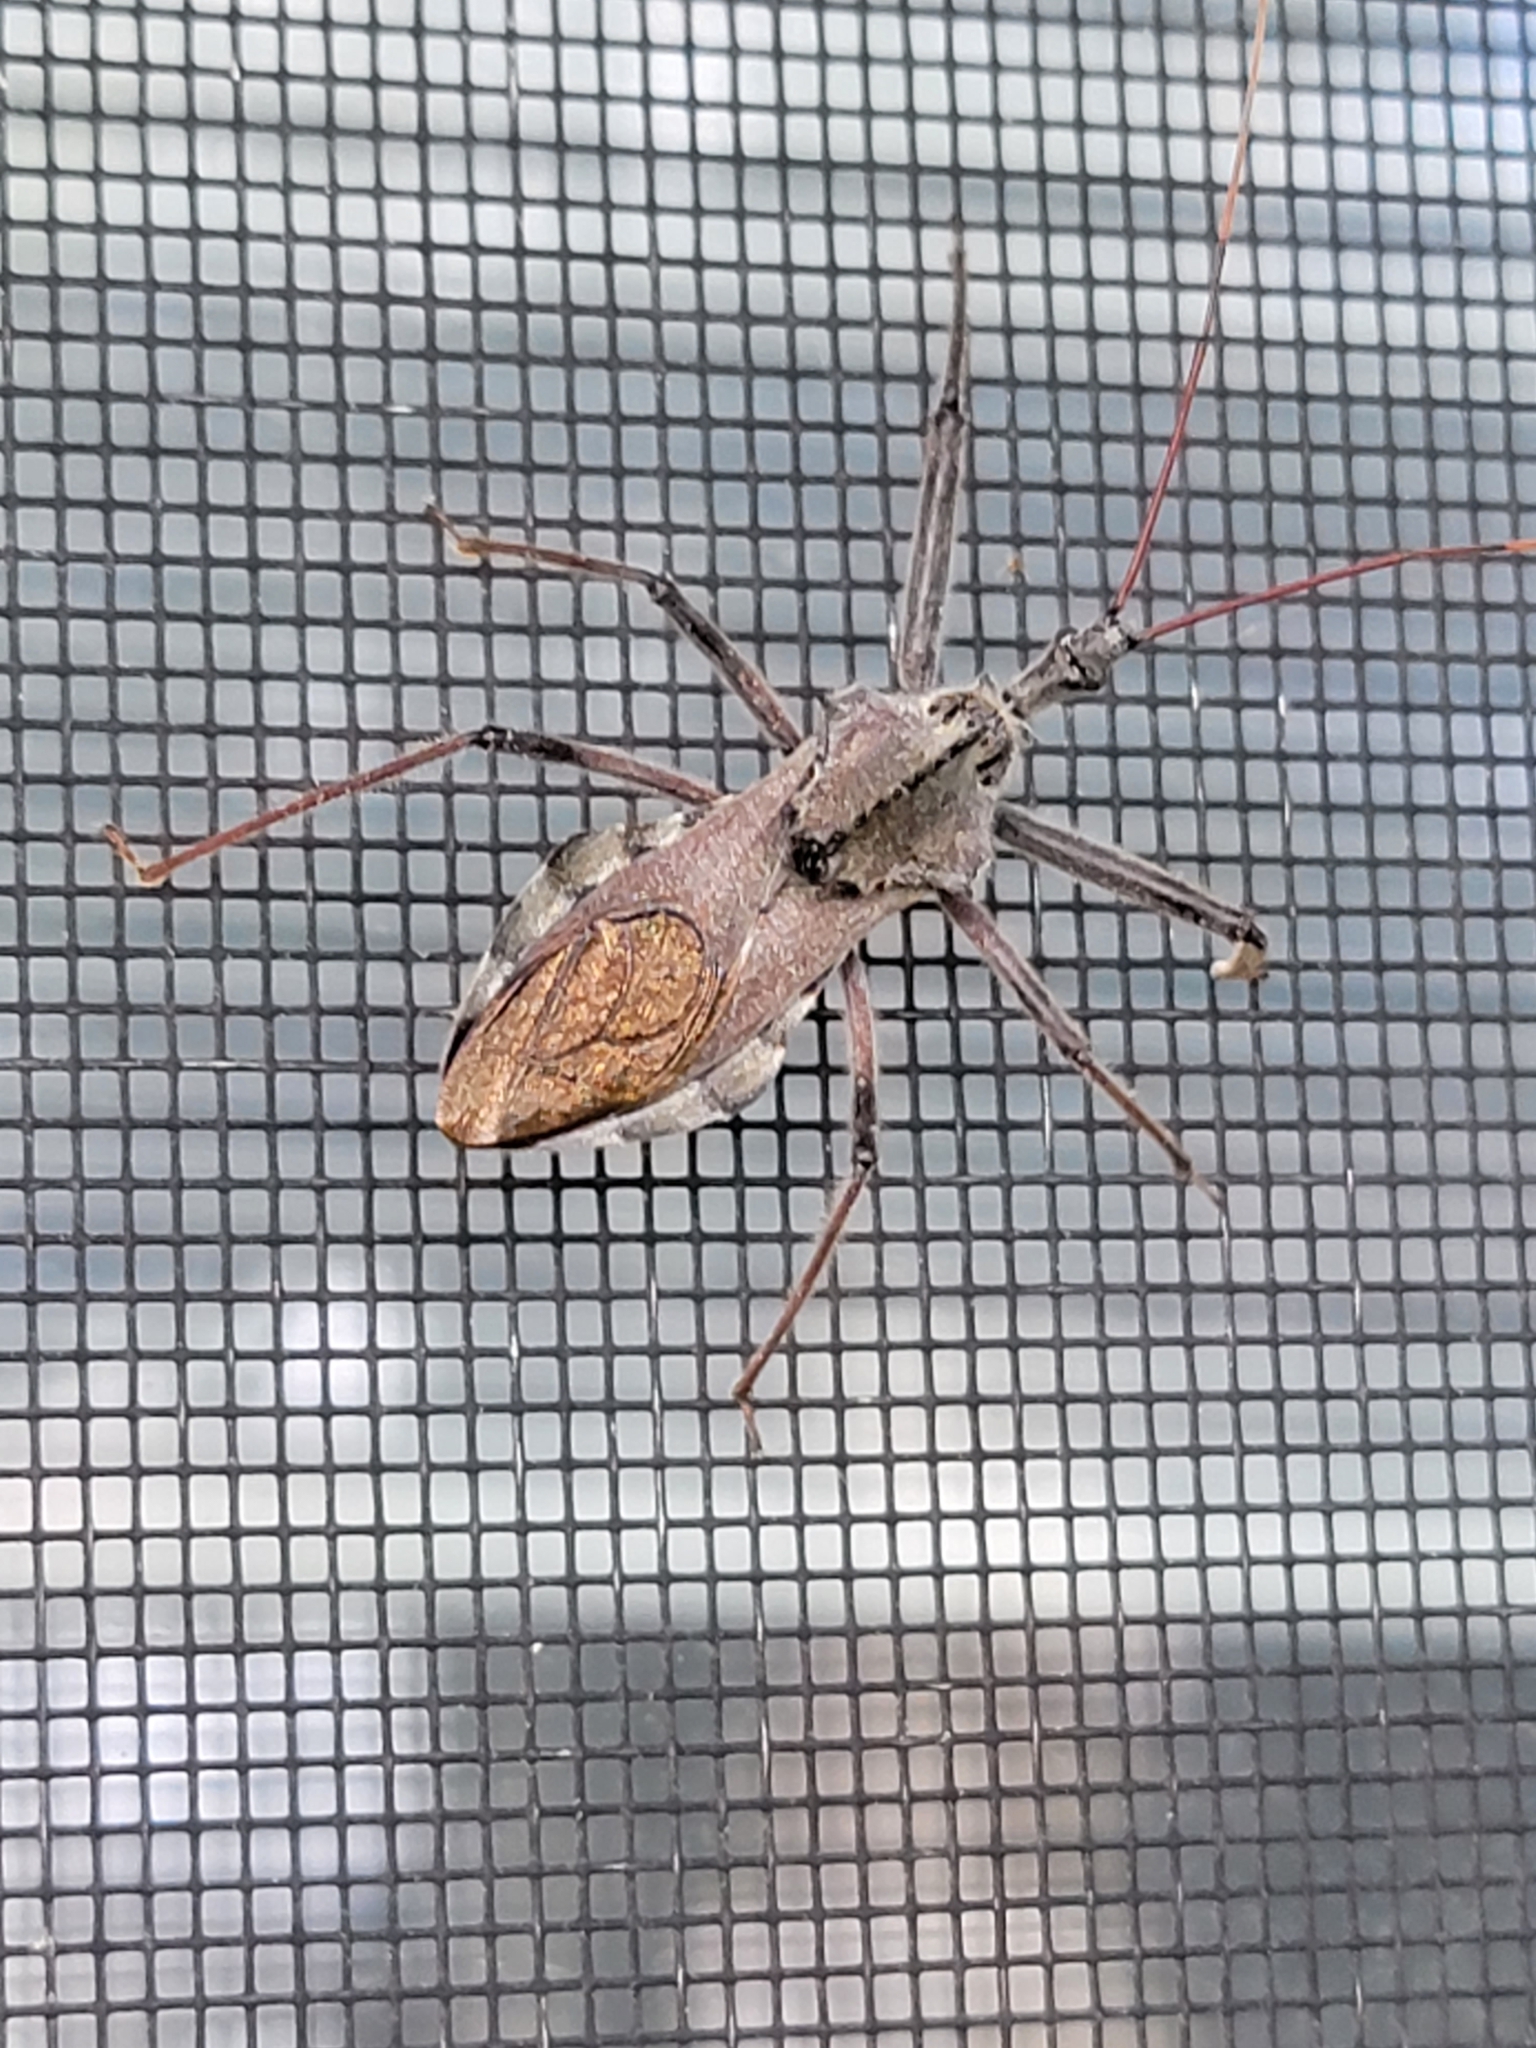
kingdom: Animalia
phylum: Arthropoda
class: Insecta
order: Hemiptera
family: Reduviidae
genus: Arilus
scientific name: Arilus cristatus
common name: North american wheel bug
